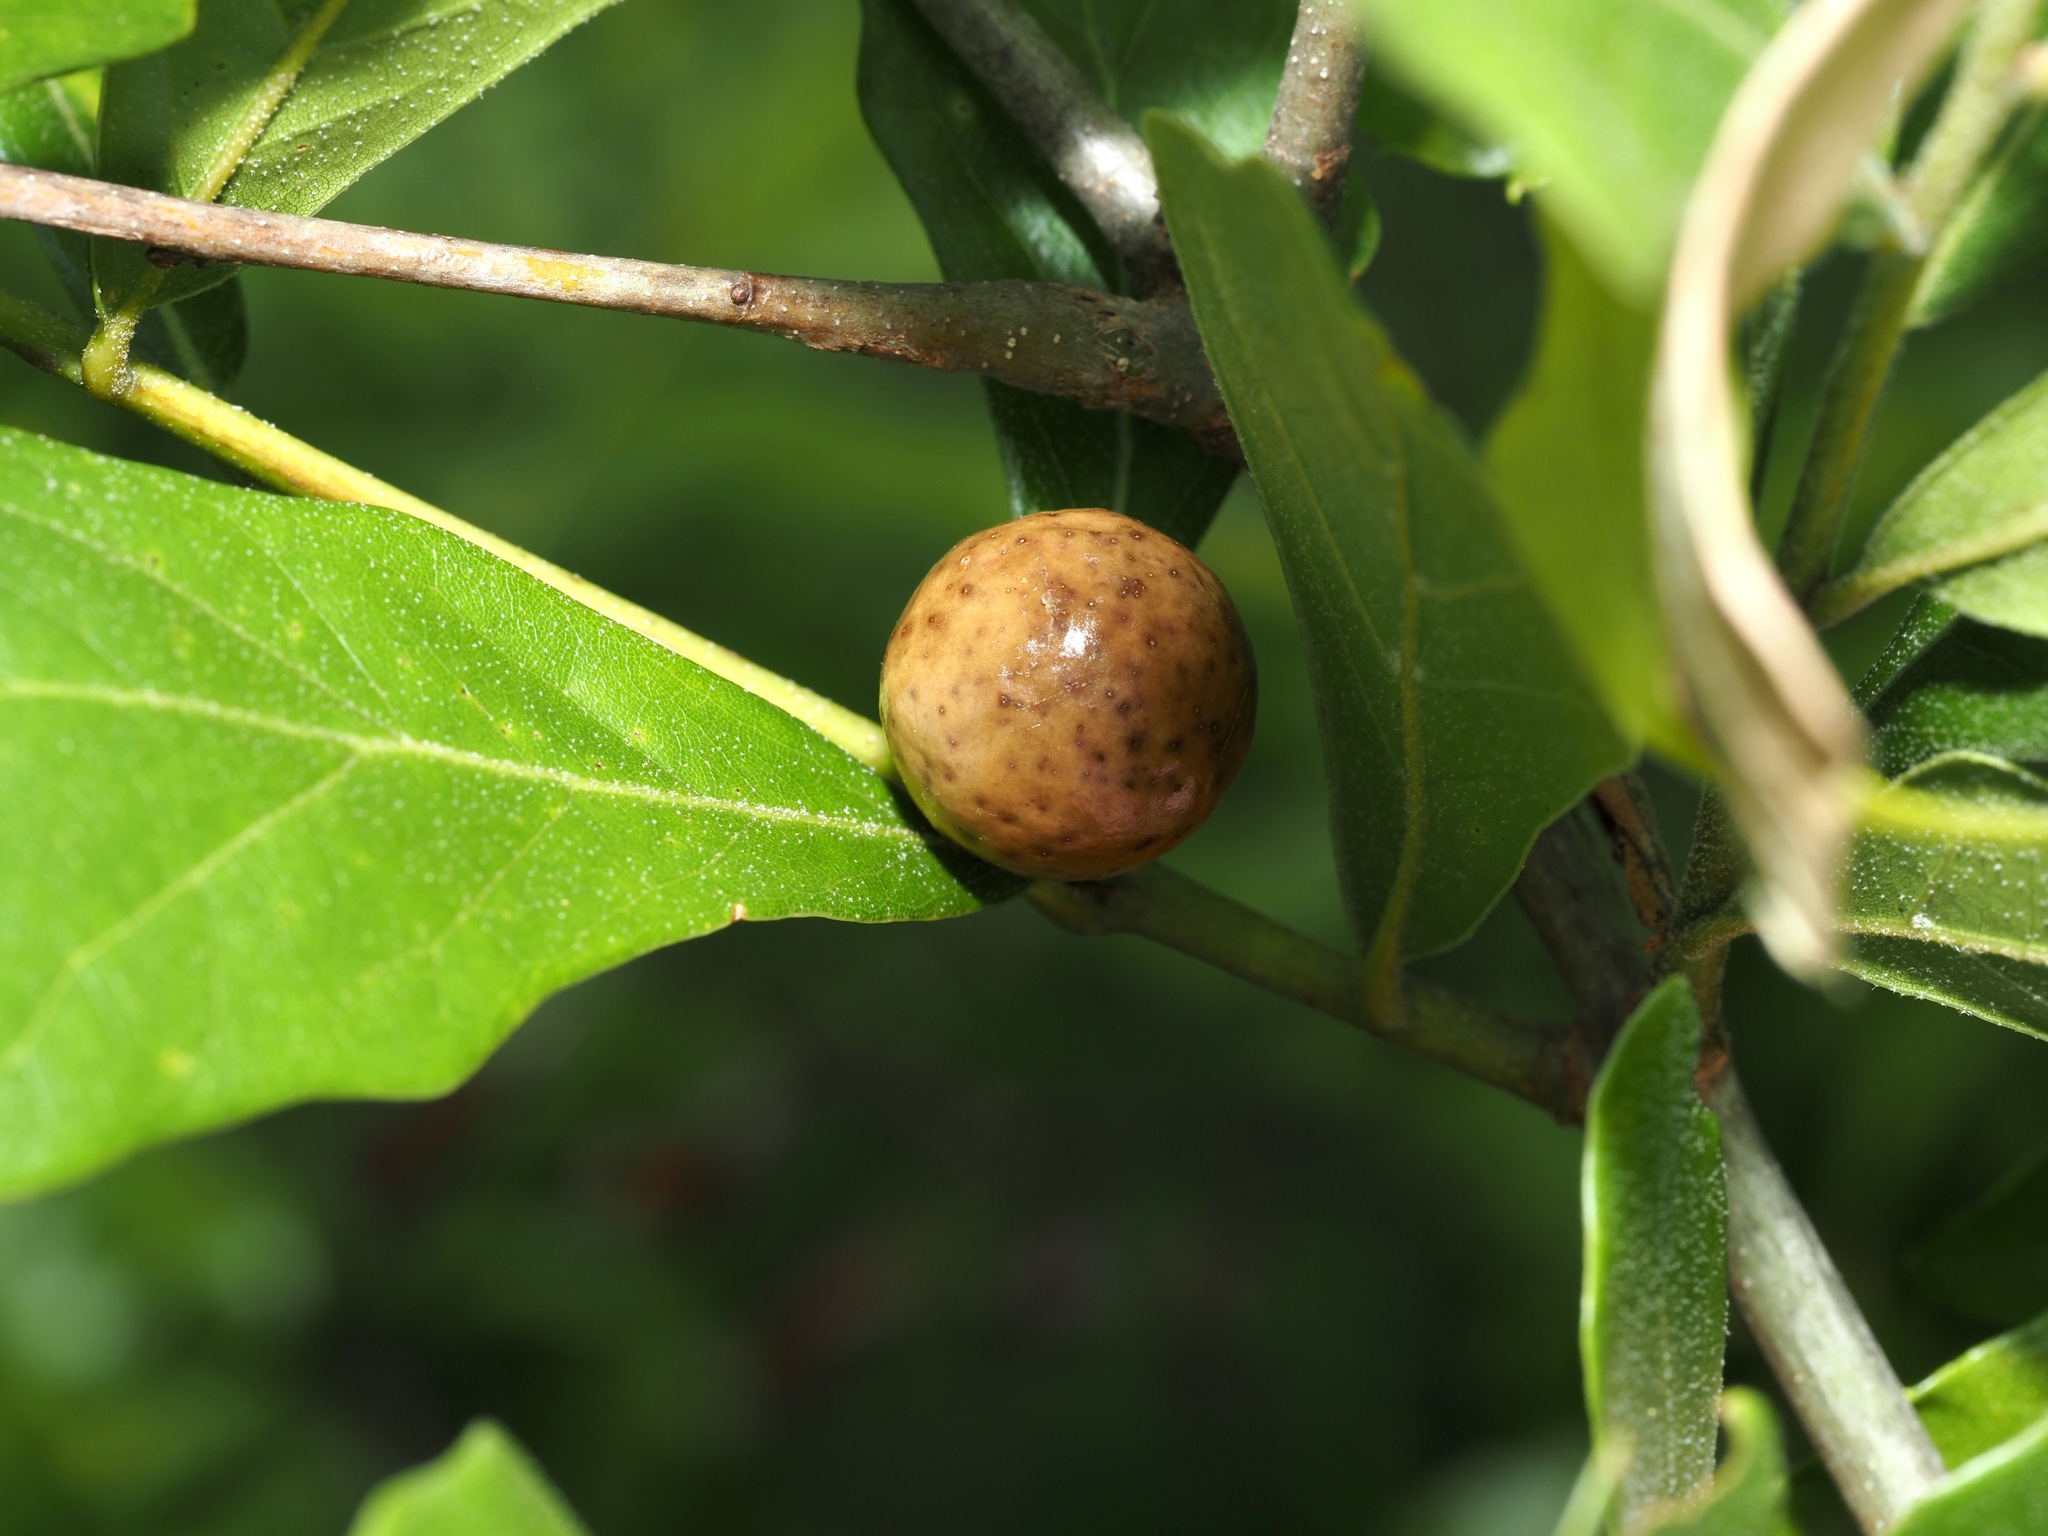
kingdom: Animalia
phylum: Arthropoda
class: Insecta
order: Hymenoptera
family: Cynipidae
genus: Amphibolips
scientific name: Amphibolips
